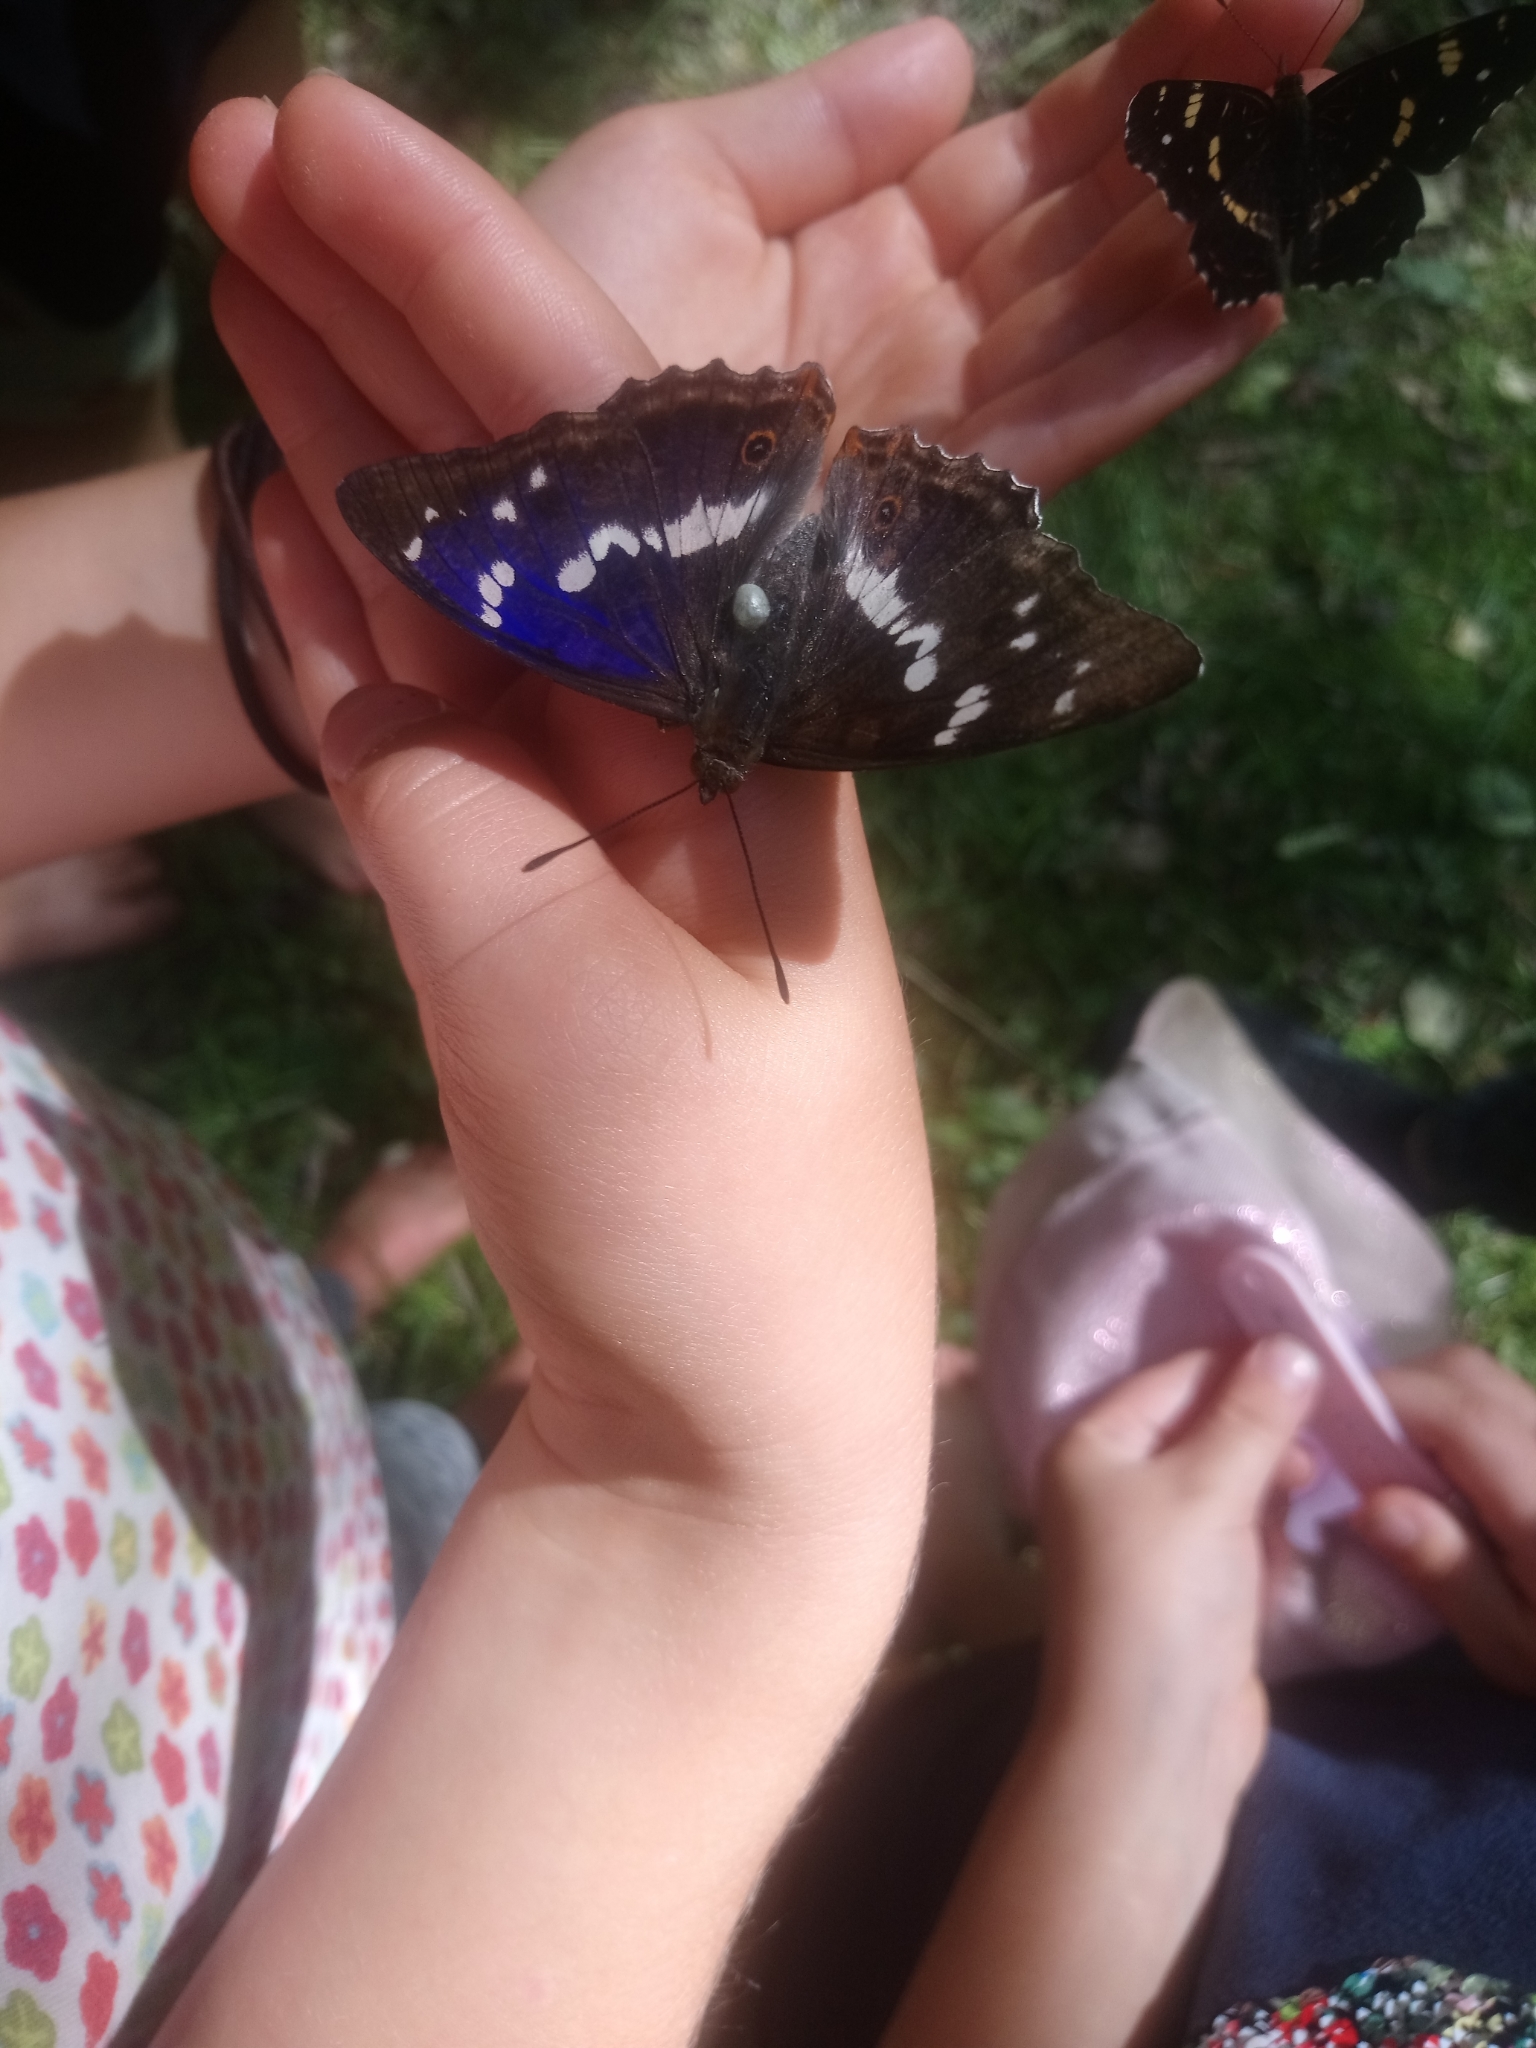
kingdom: Animalia
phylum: Arthropoda
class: Insecta
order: Lepidoptera
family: Nymphalidae
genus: Apatura
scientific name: Apatura iris
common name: Purple emperor
